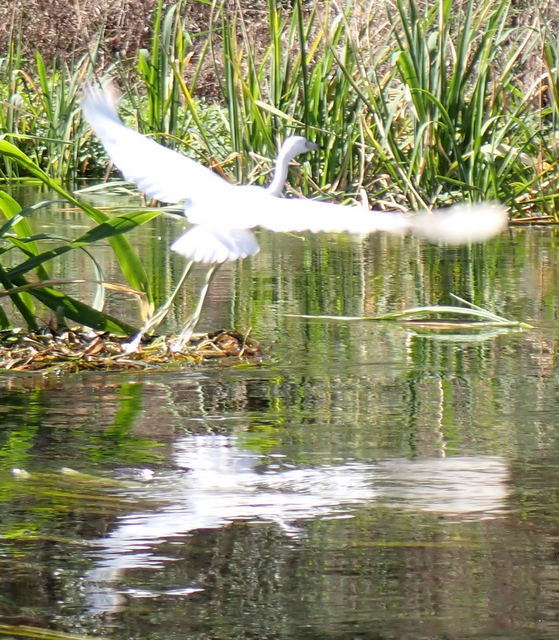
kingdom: Animalia
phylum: Chordata
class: Aves
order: Pelecaniformes
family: Ardeidae
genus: Egretta
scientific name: Egretta caerulea
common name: Little blue heron
